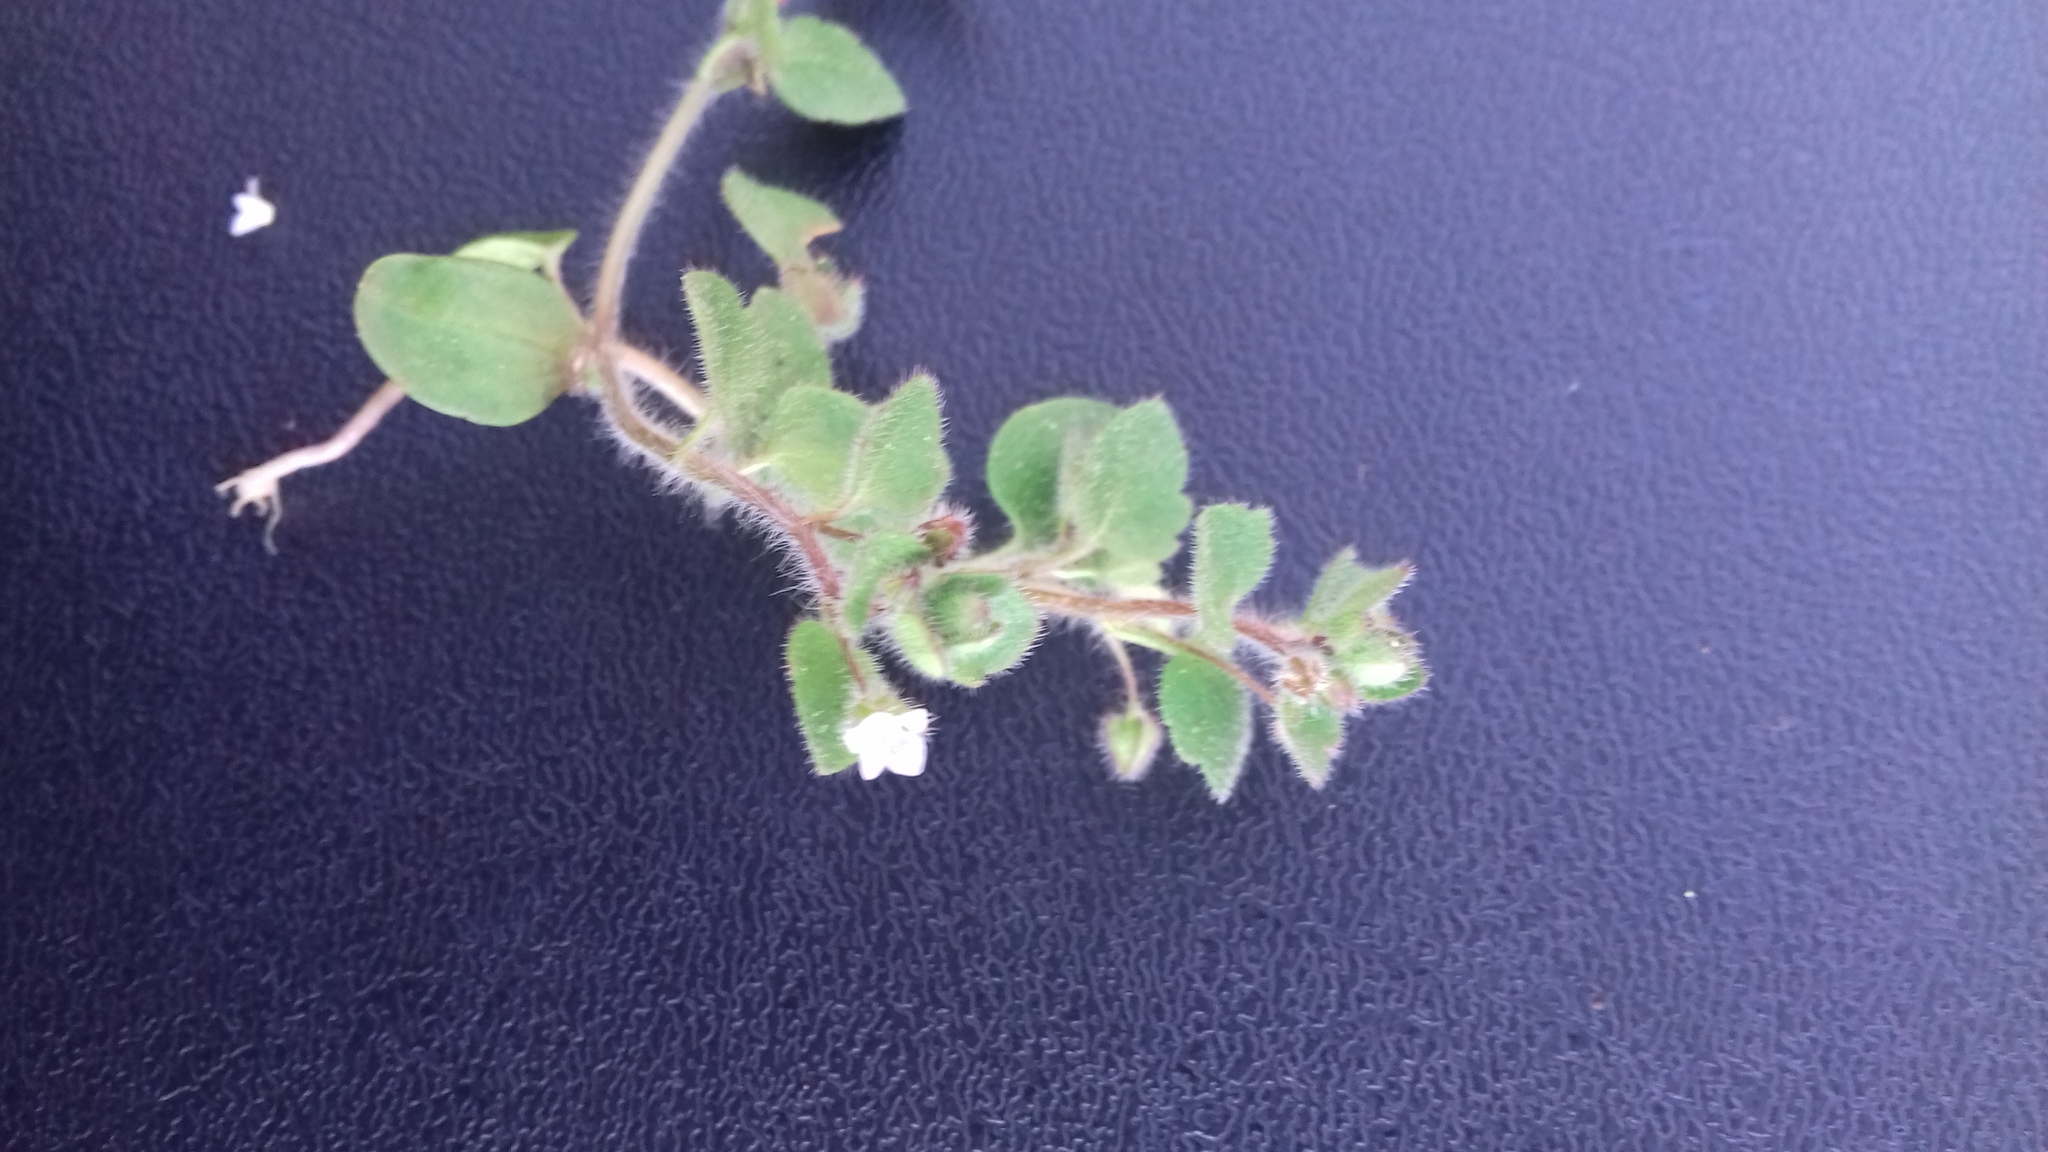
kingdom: Plantae
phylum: Tracheophyta
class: Magnoliopsida
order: Lamiales
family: Plantaginaceae
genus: Veronica
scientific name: Veronica sublobata
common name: False ivy-leaved speedwell
